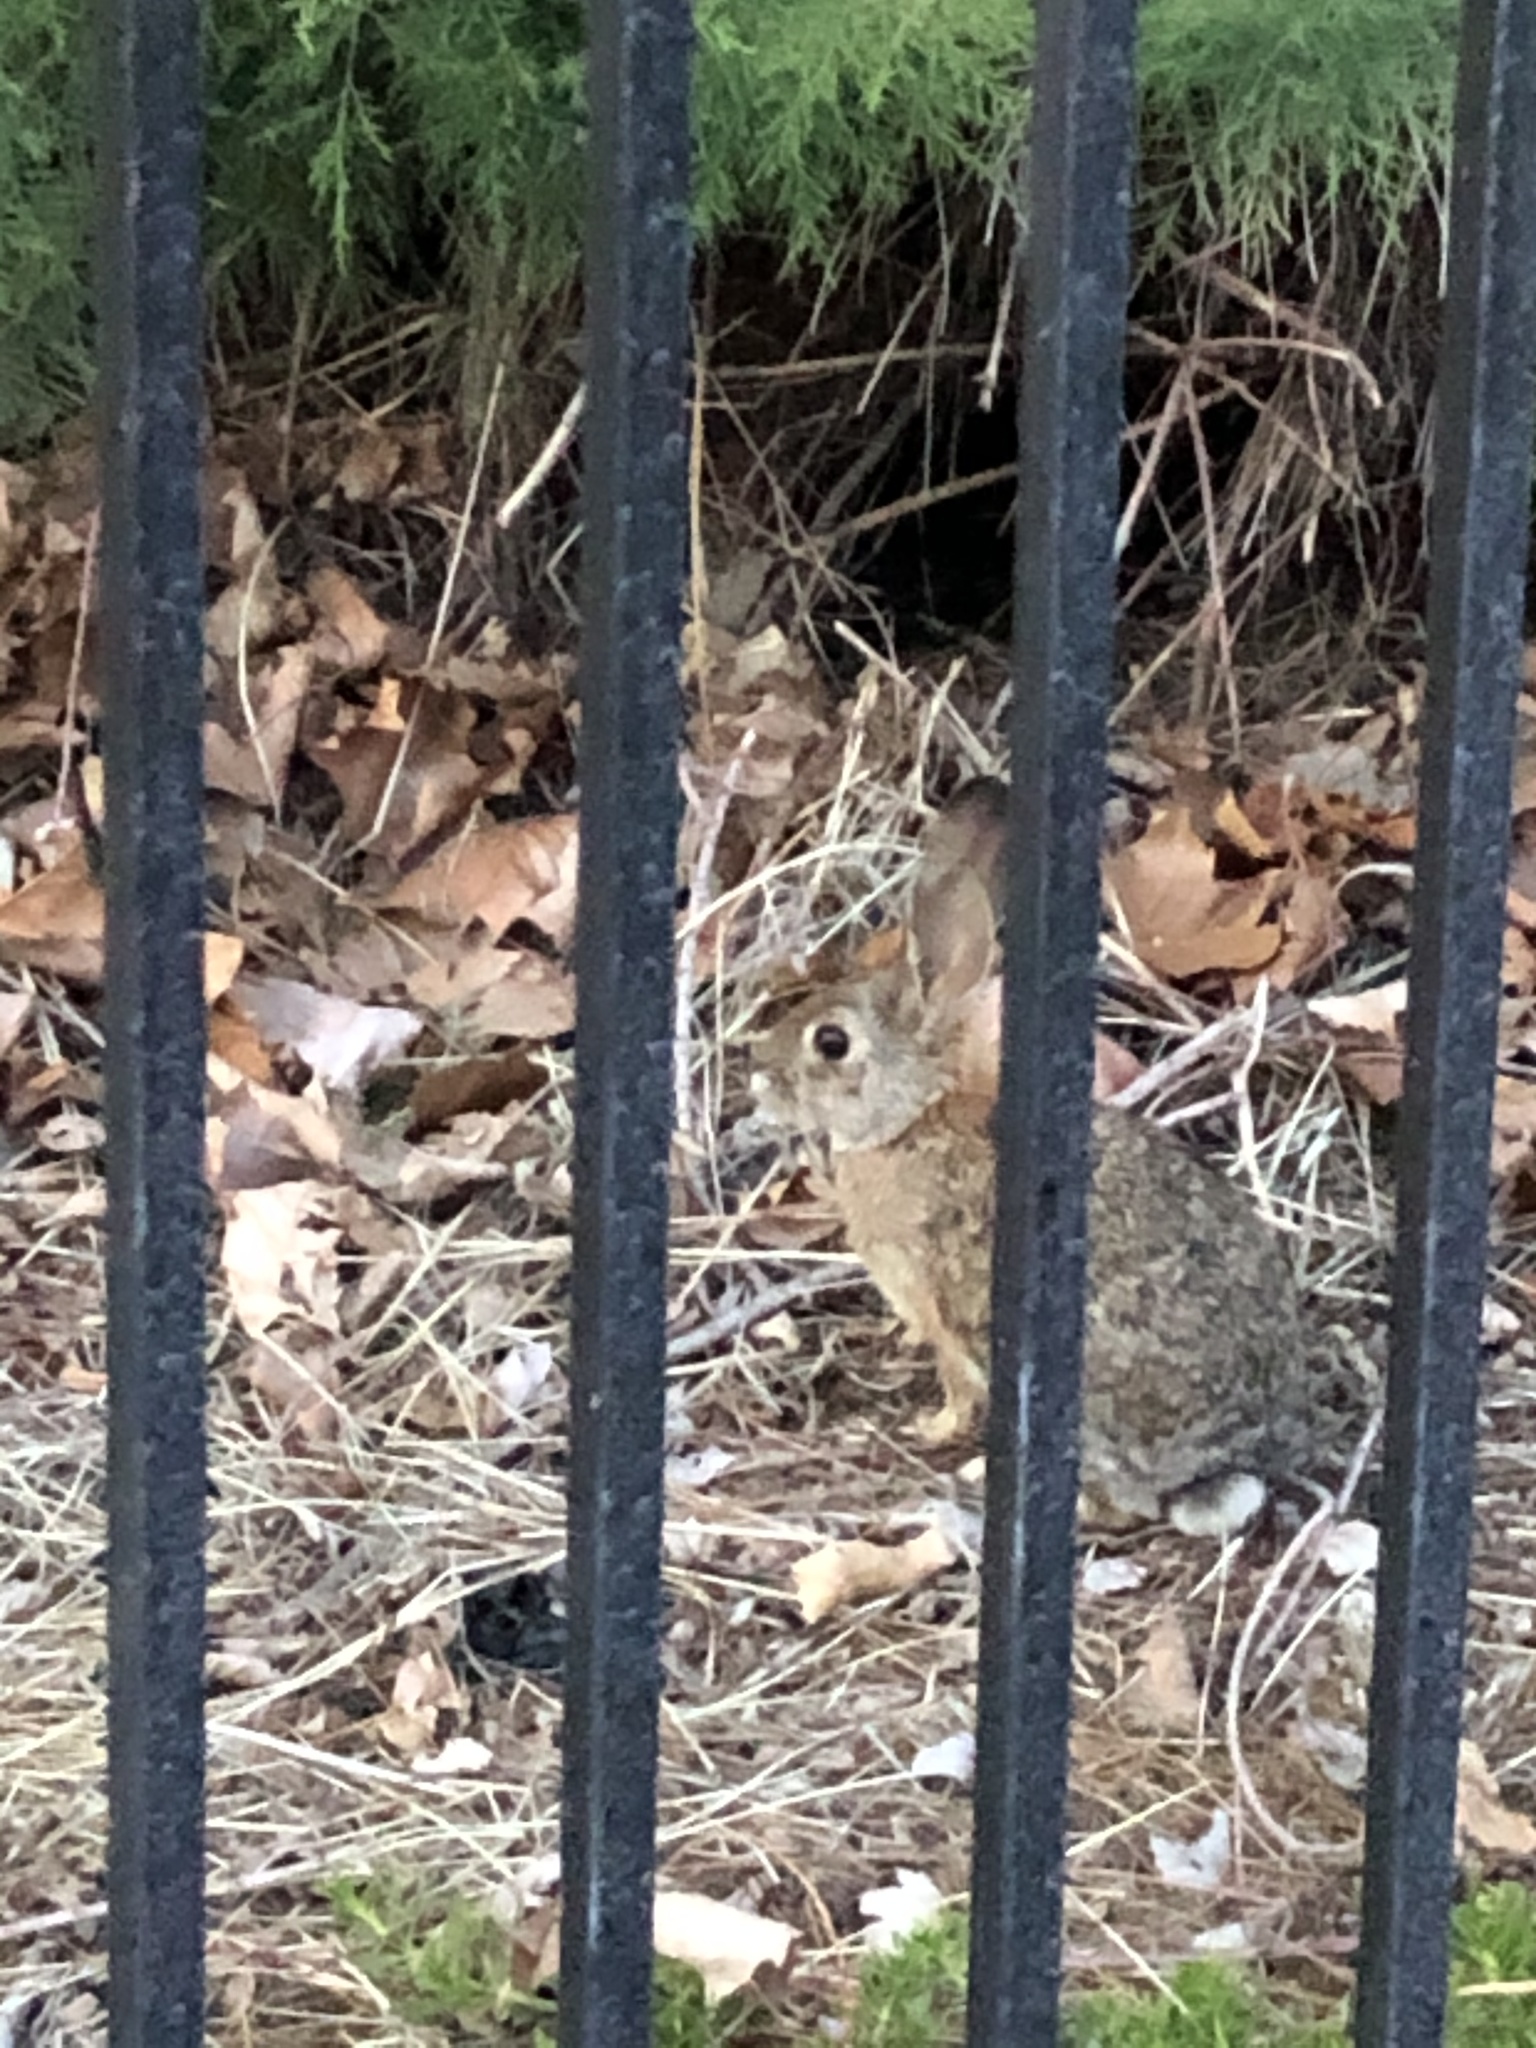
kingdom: Animalia
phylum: Chordata
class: Mammalia
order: Lagomorpha
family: Leporidae
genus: Sylvilagus
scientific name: Sylvilagus audubonii
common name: Desert cottontail
